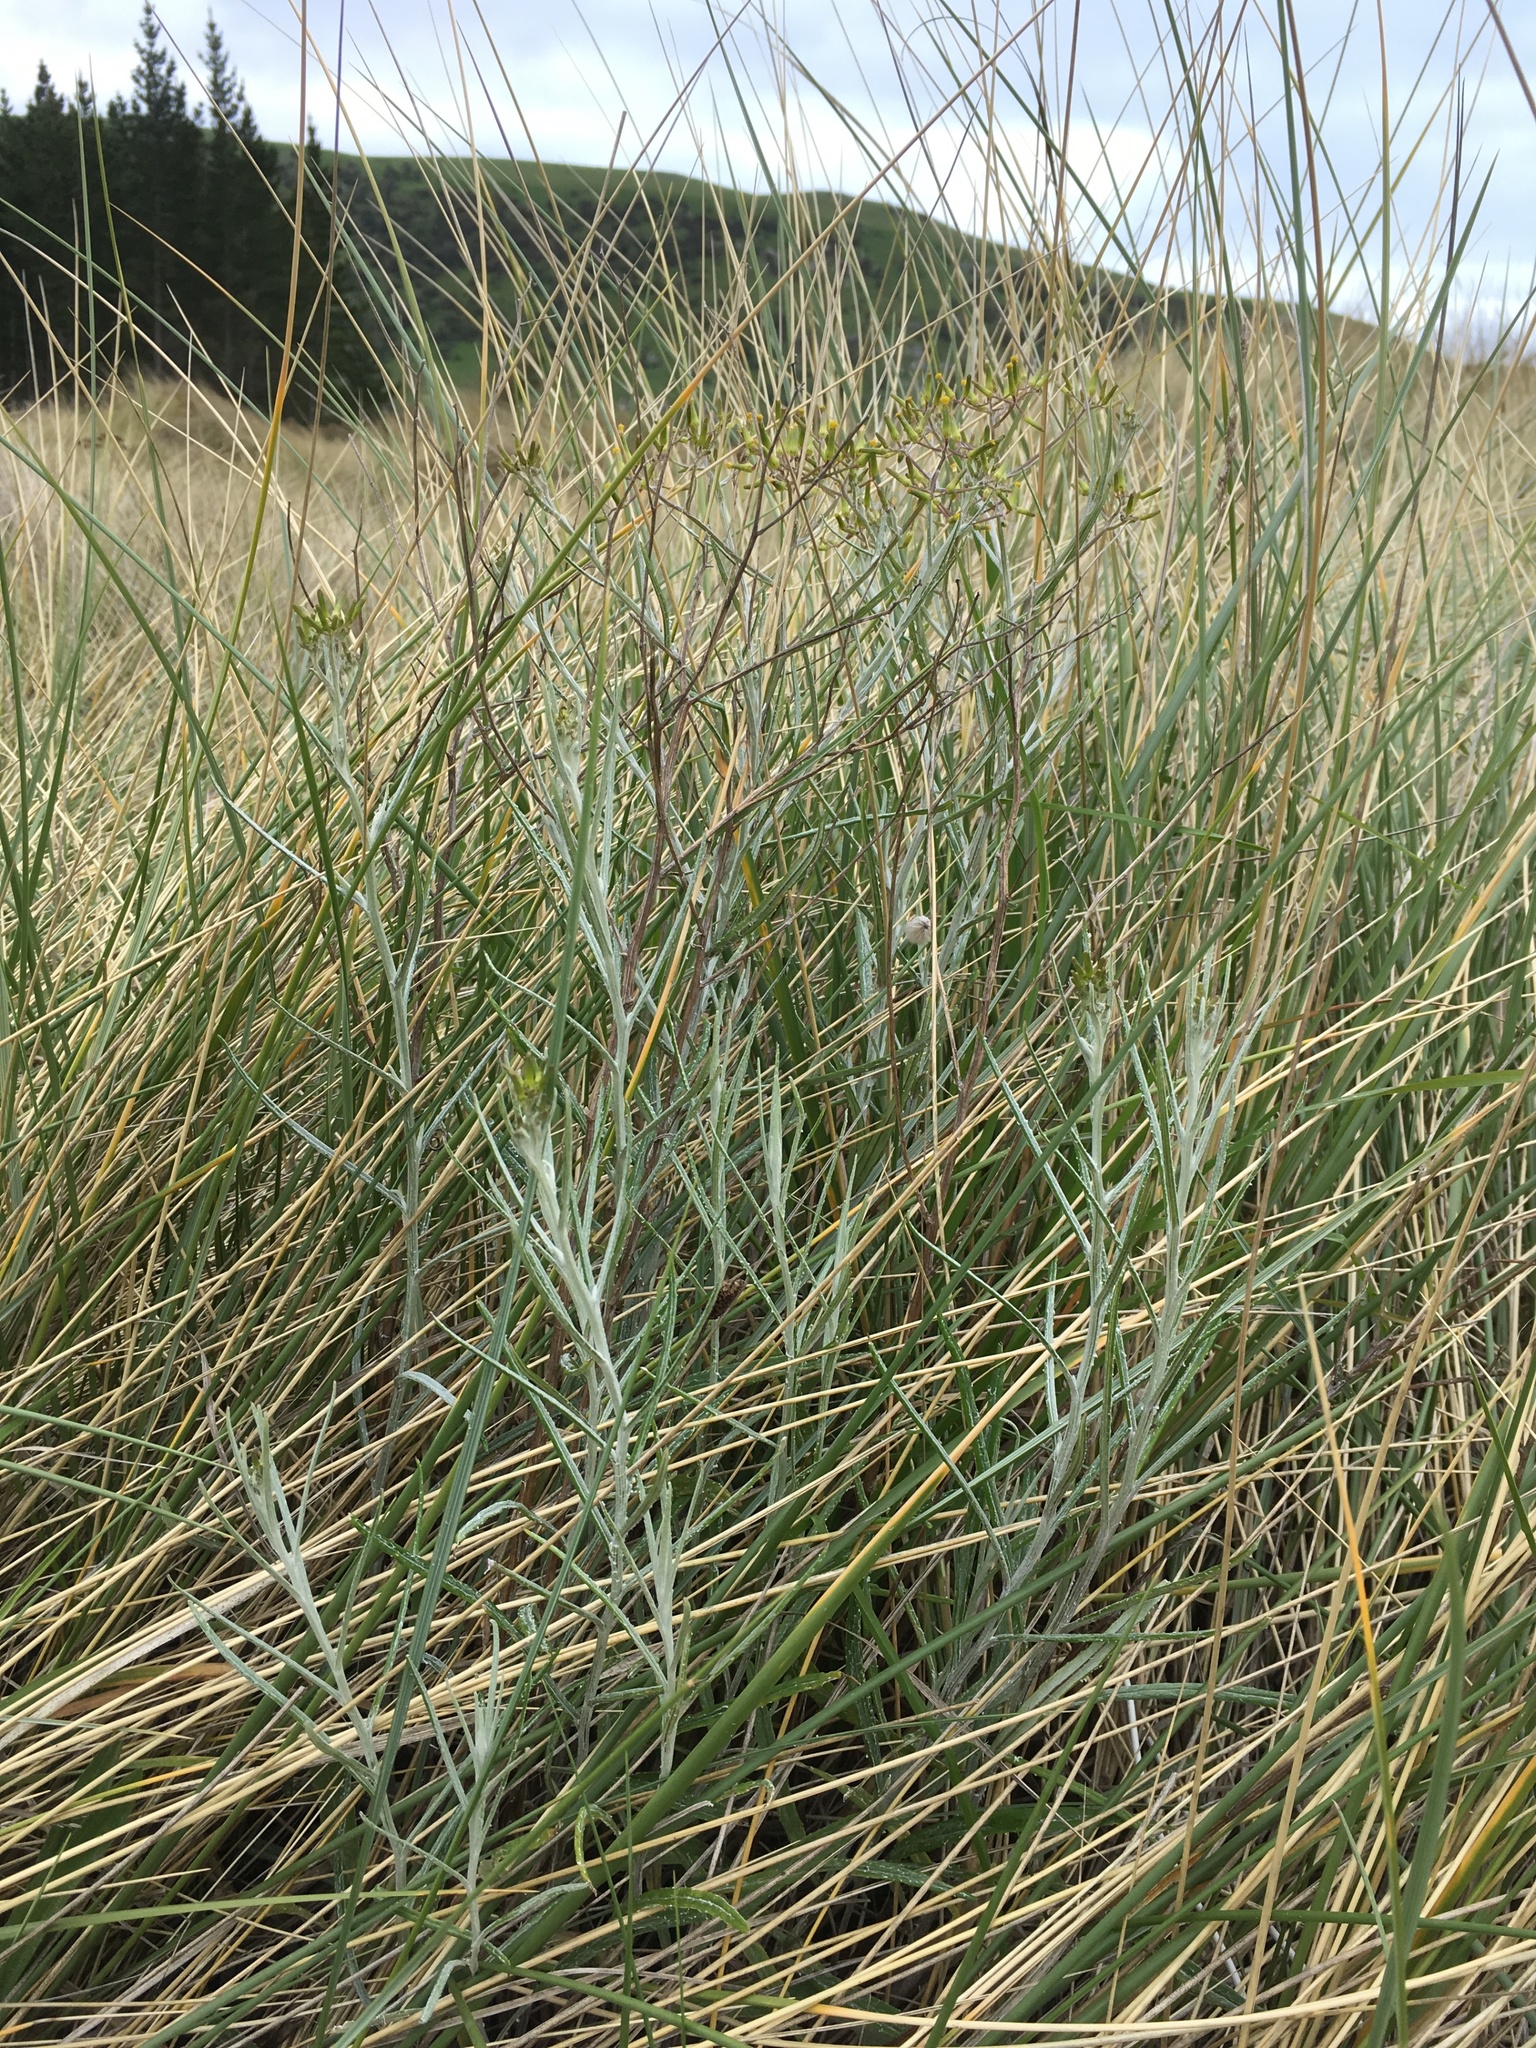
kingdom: Plantae
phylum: Tracheophyta
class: Magnoliopsida
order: Asterales
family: Asteraceae
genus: Senecio
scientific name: Senecio quadridentatus
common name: Cotton fireweed
